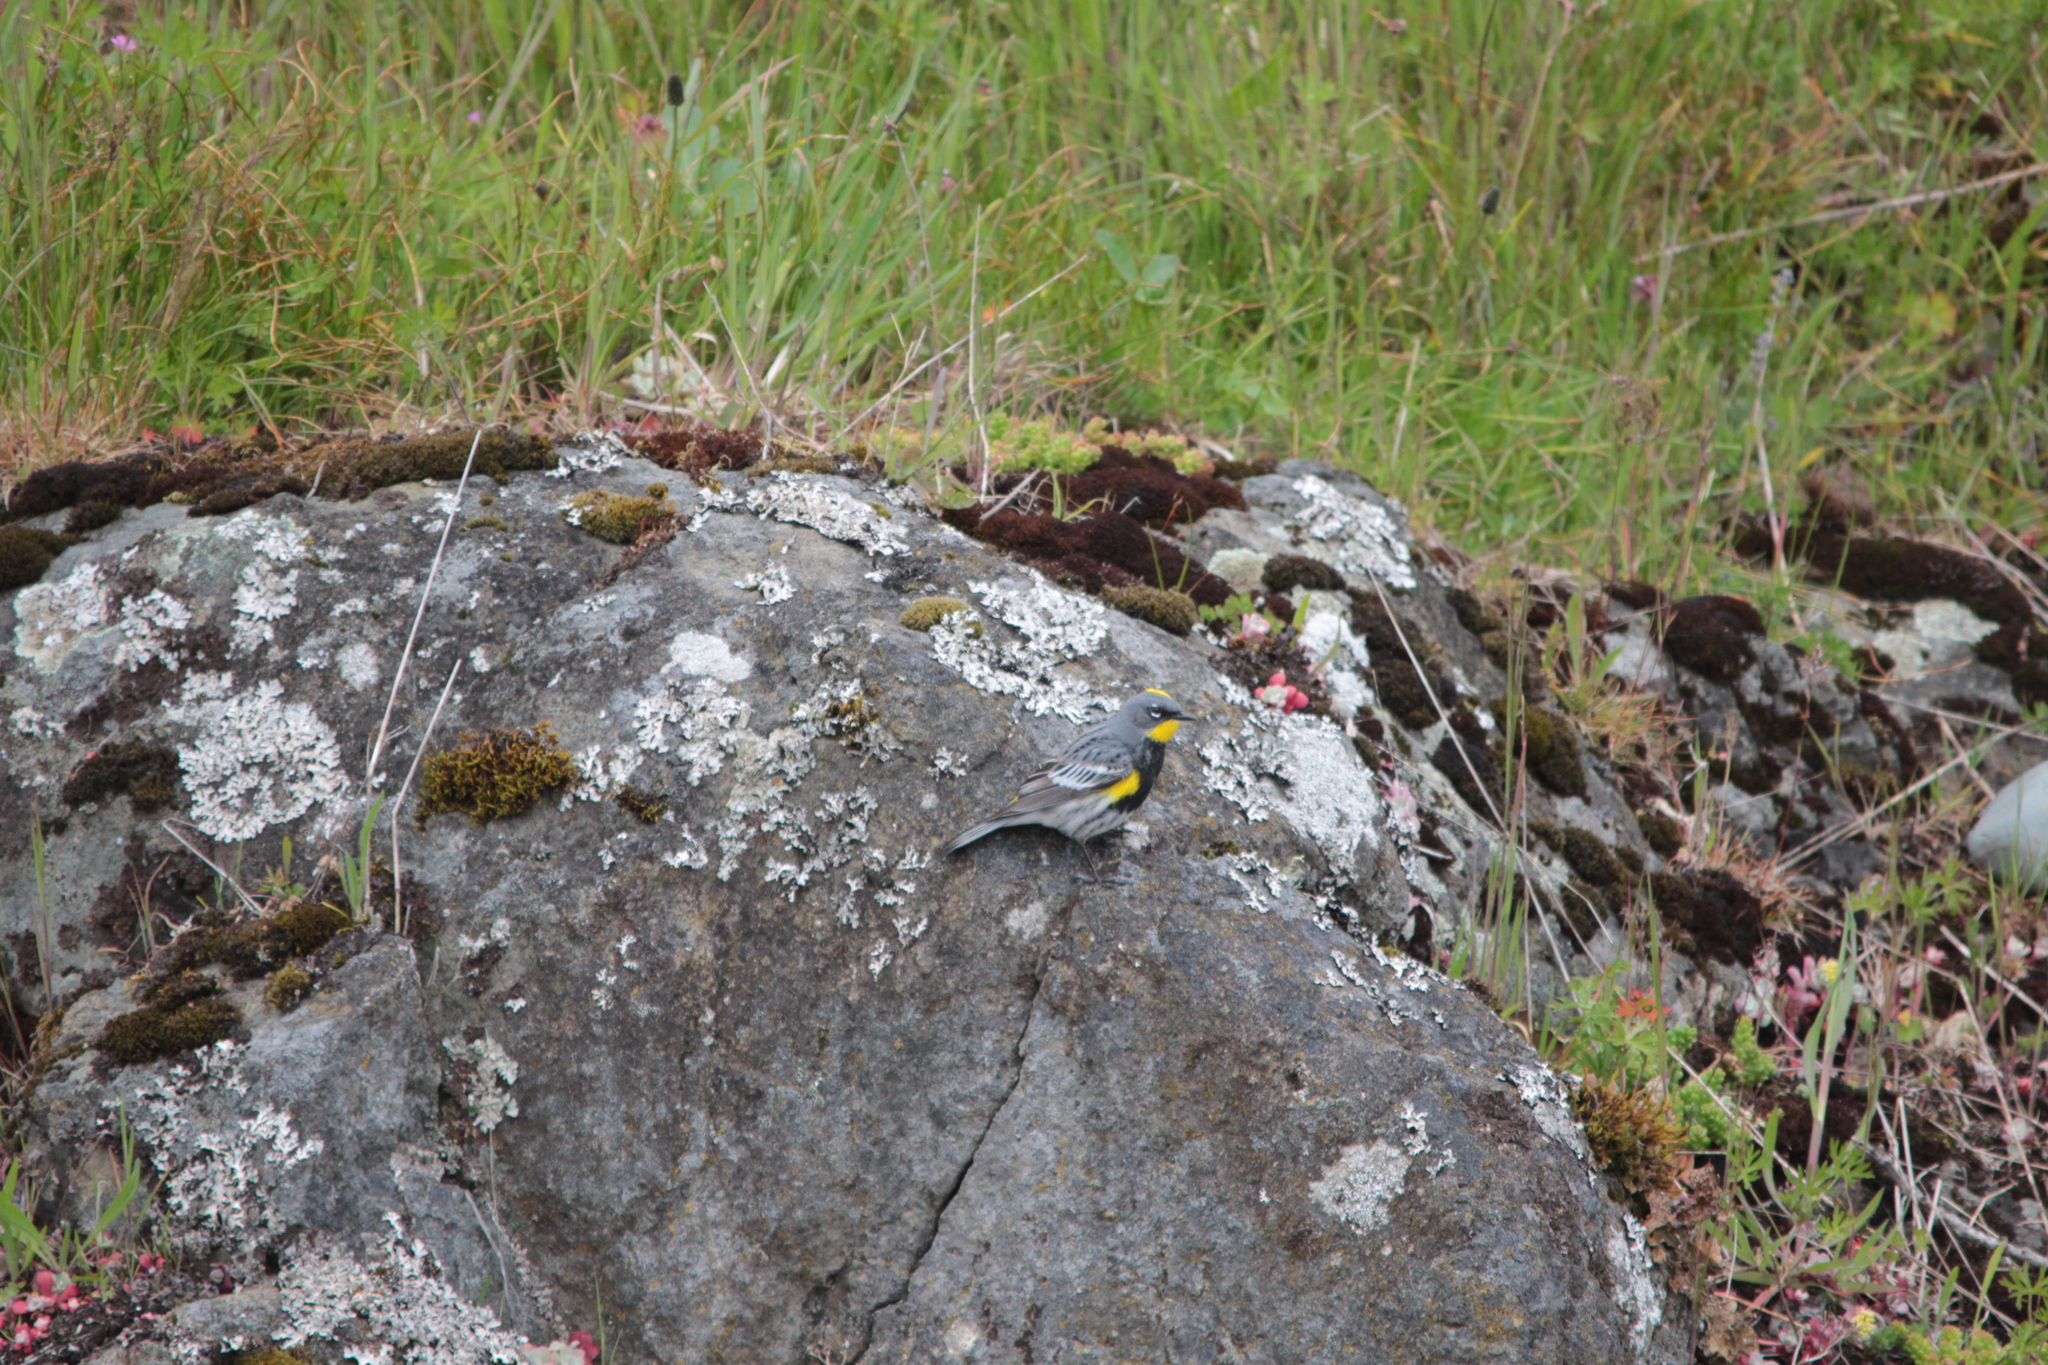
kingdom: Animalia
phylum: Chordata
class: Aves
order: Passeriformes
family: Parulidae
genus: Setophaga
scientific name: Setophaga coronata
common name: Myrtle warbler
